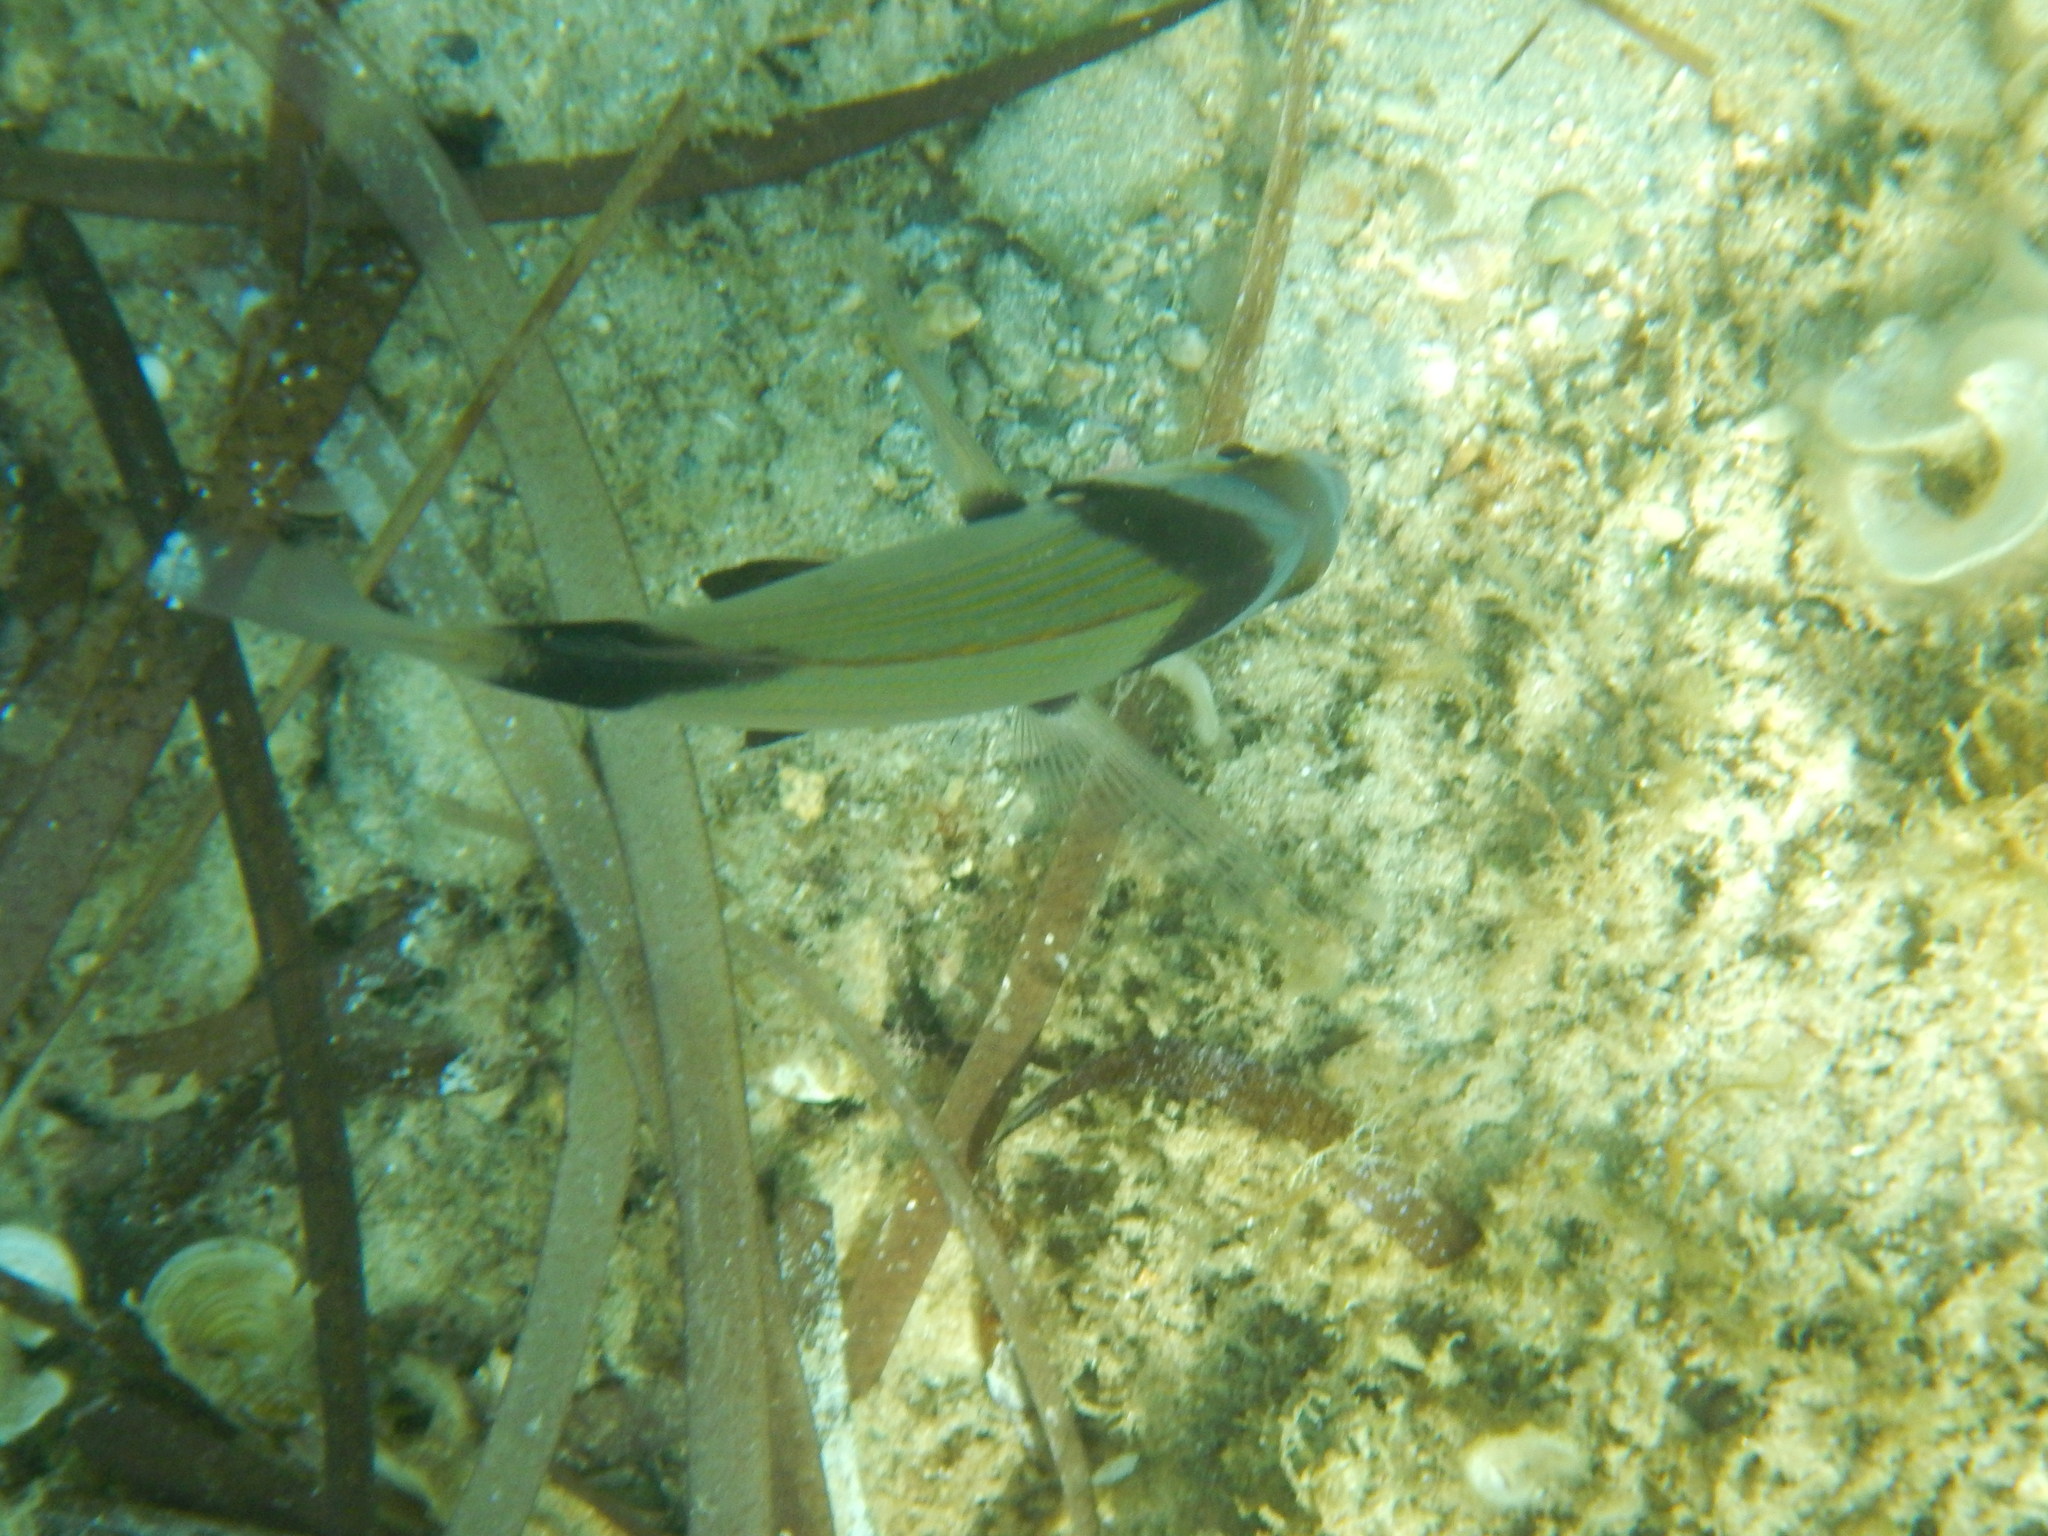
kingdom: Animalia
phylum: Chordata
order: Perciformes
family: Sparidae
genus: Diplodus
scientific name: Diplodus vulgaris
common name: Common two-banded seabream
